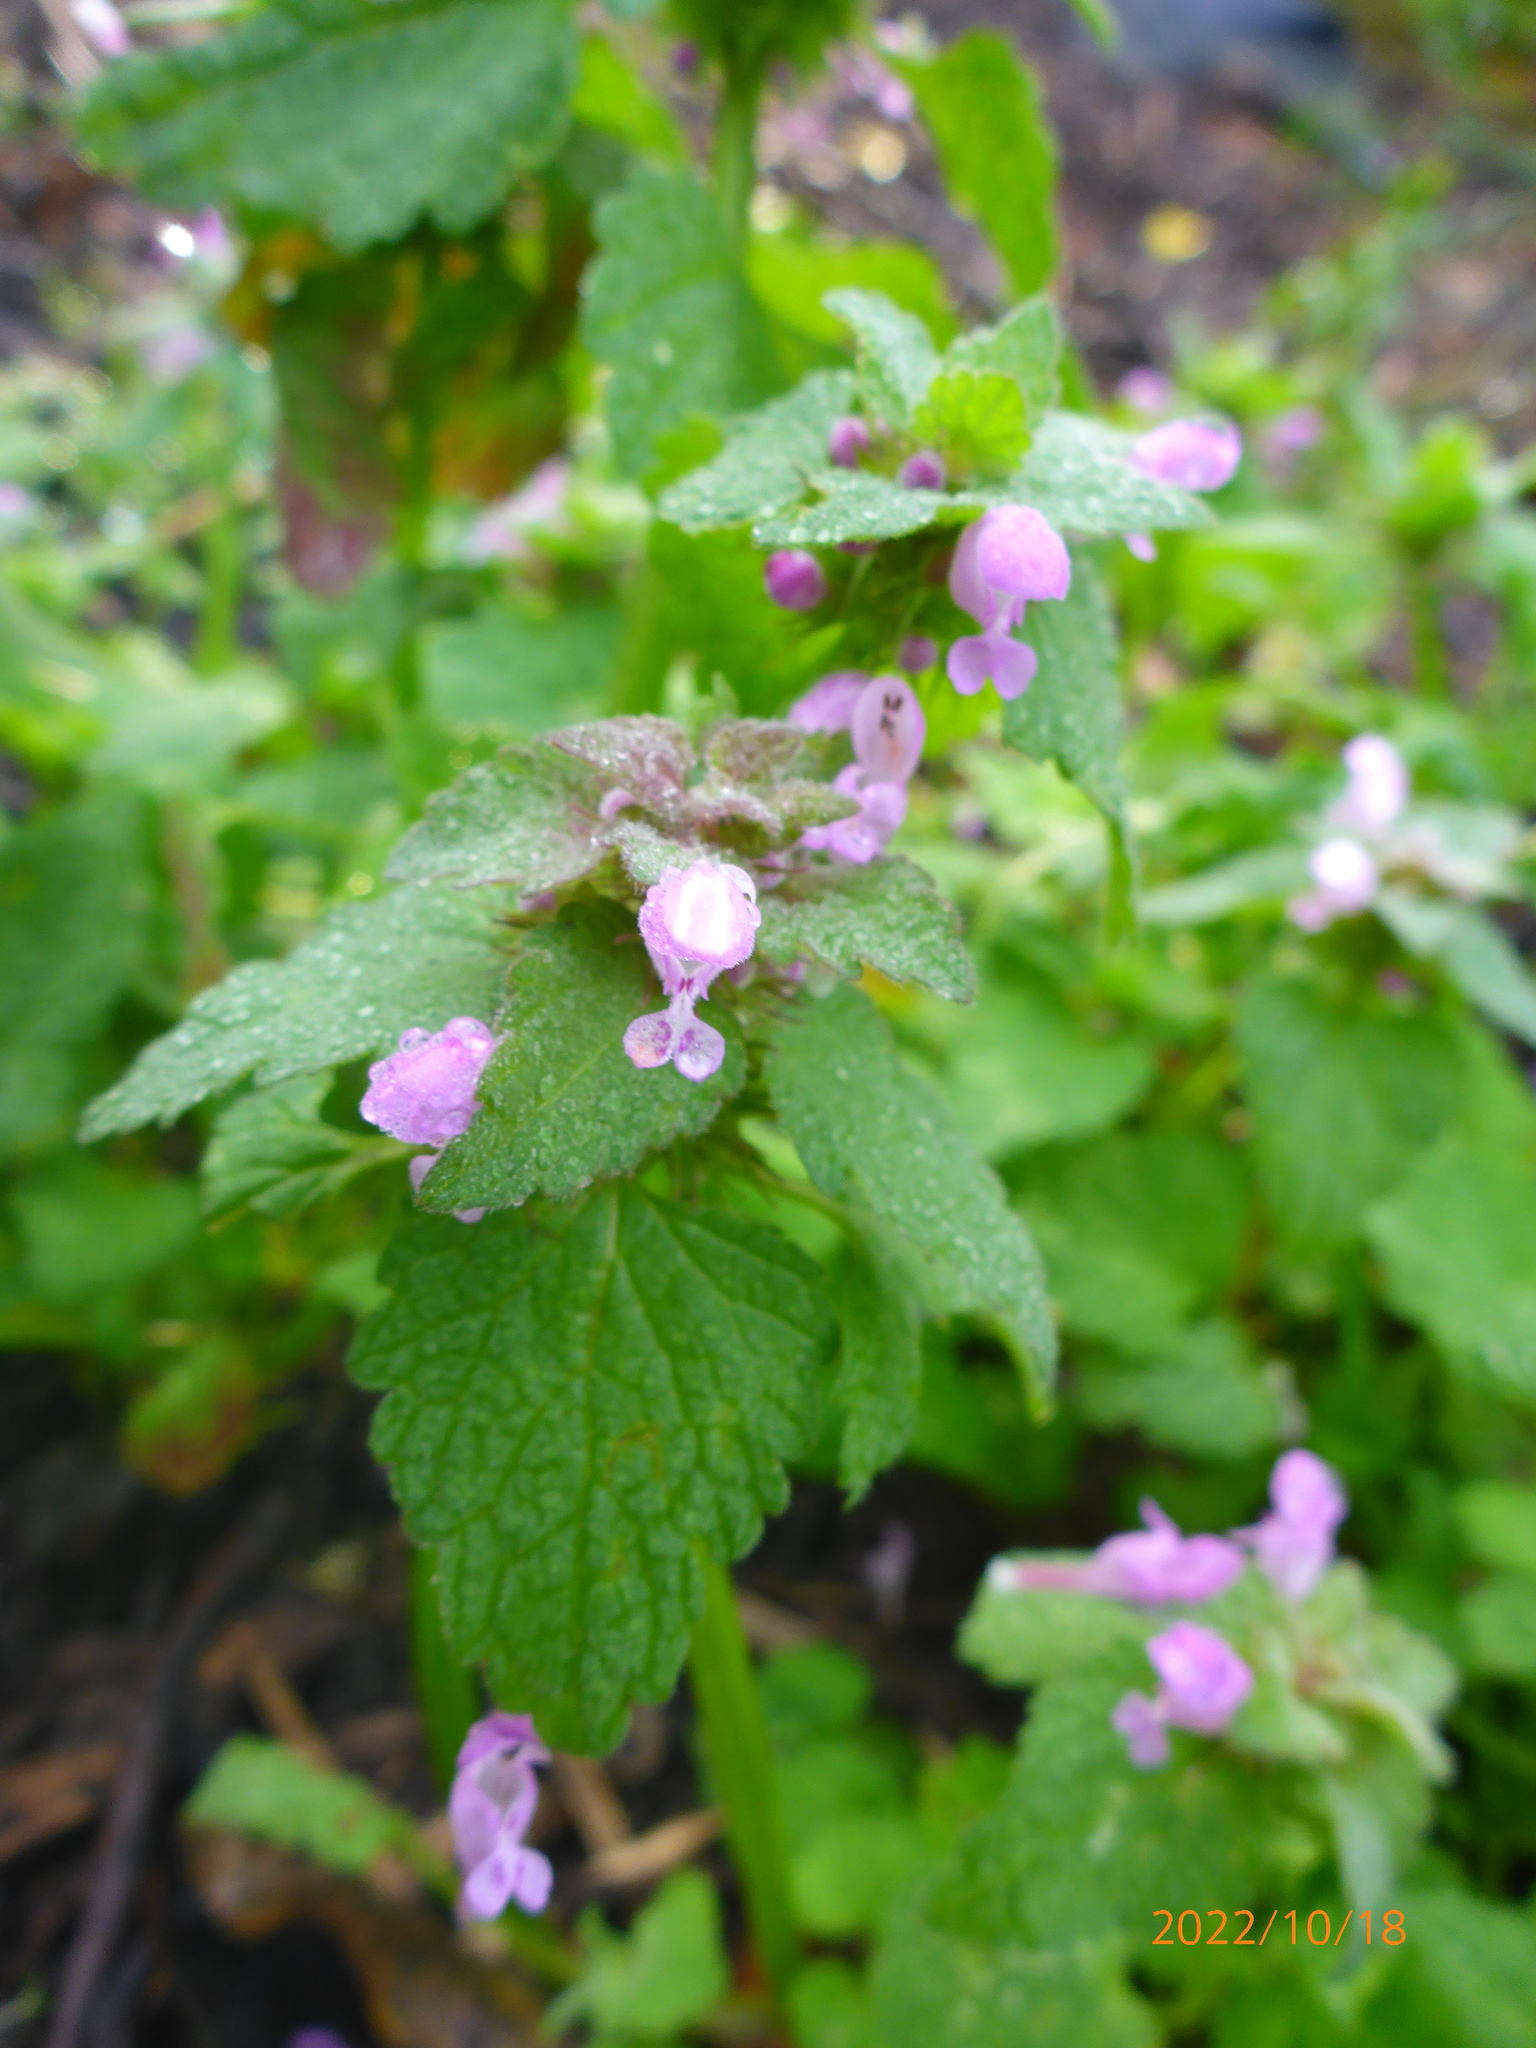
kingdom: Plantae
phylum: Tracheophyta
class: Magnoliopsida
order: Lamiales
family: Lamiaceae
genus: Lamium
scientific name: Lamium purpureum
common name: Red dead-nettle
